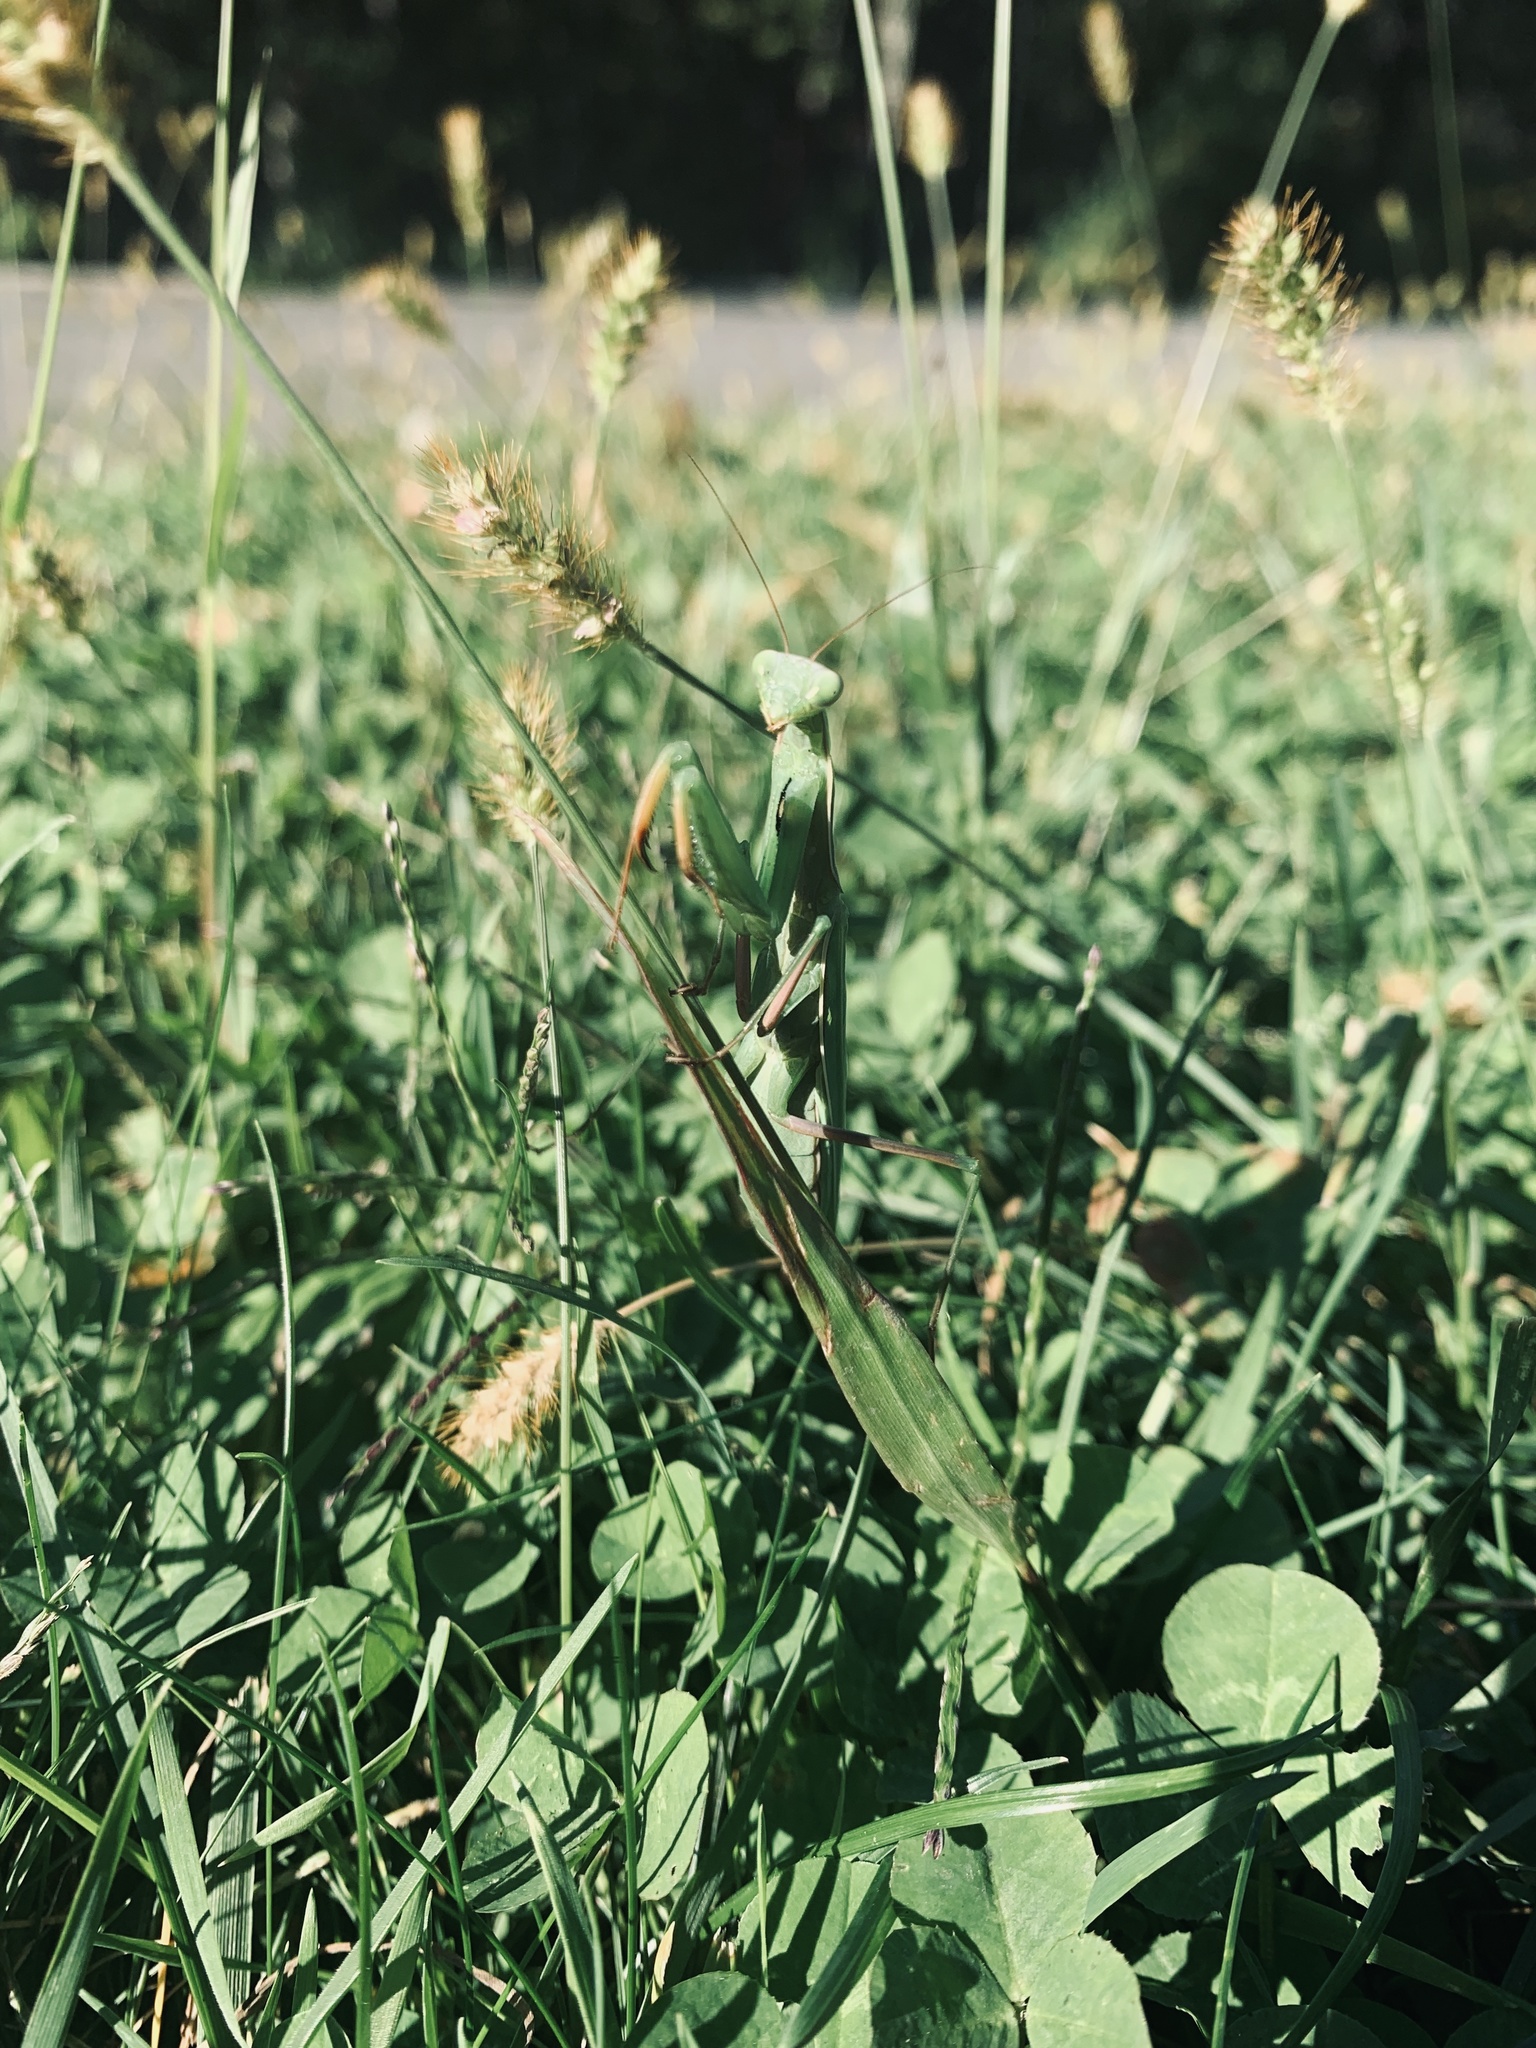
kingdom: Animalia
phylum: Arthropoda
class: Insecta
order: Mantodea
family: Mantidae
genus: Mantis
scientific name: Mantis religiosa
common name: Praying mantis
